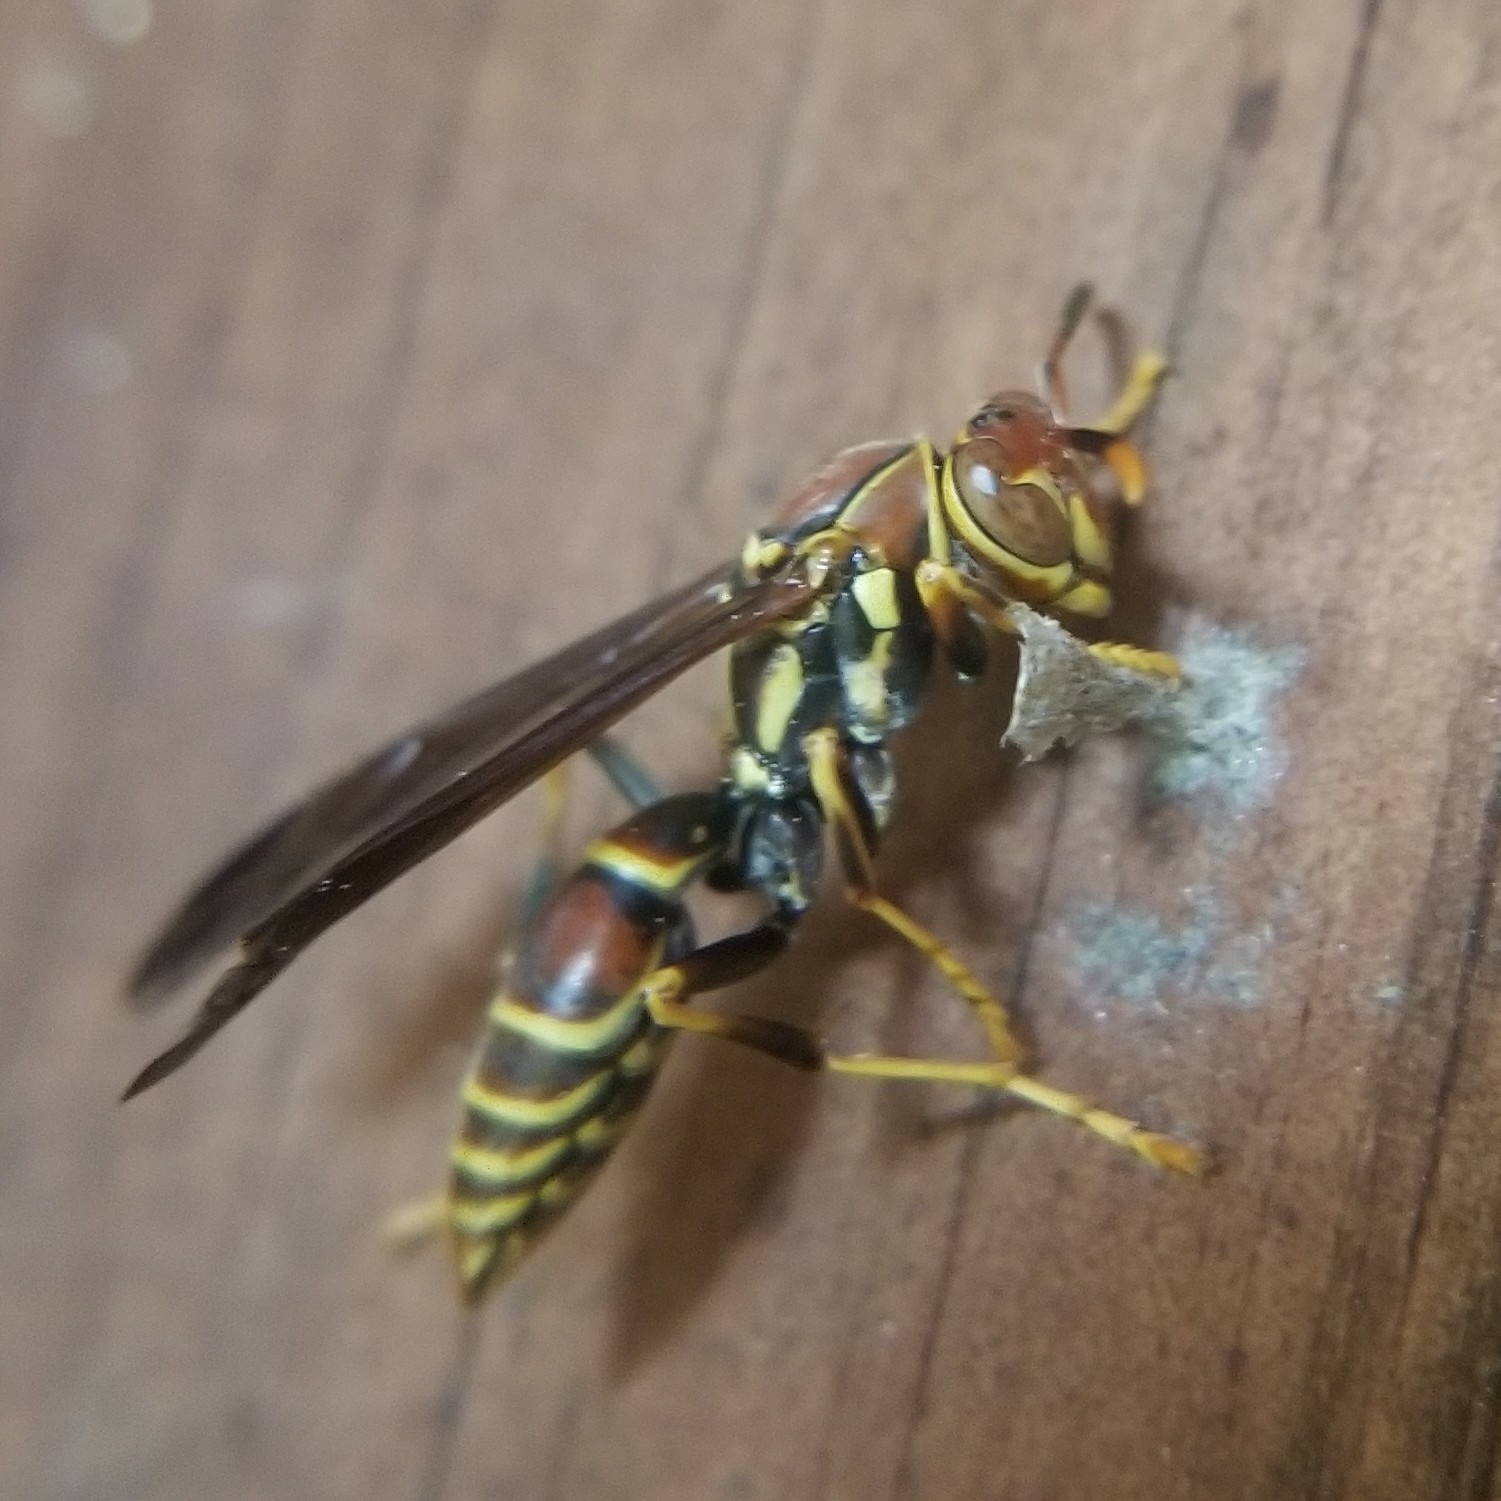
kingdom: Animalia
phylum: Arthropoda
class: Insecta
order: Hymenoptera
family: Eumenidae
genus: Polistes
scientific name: Polistes exclamans
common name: Paper wasp
